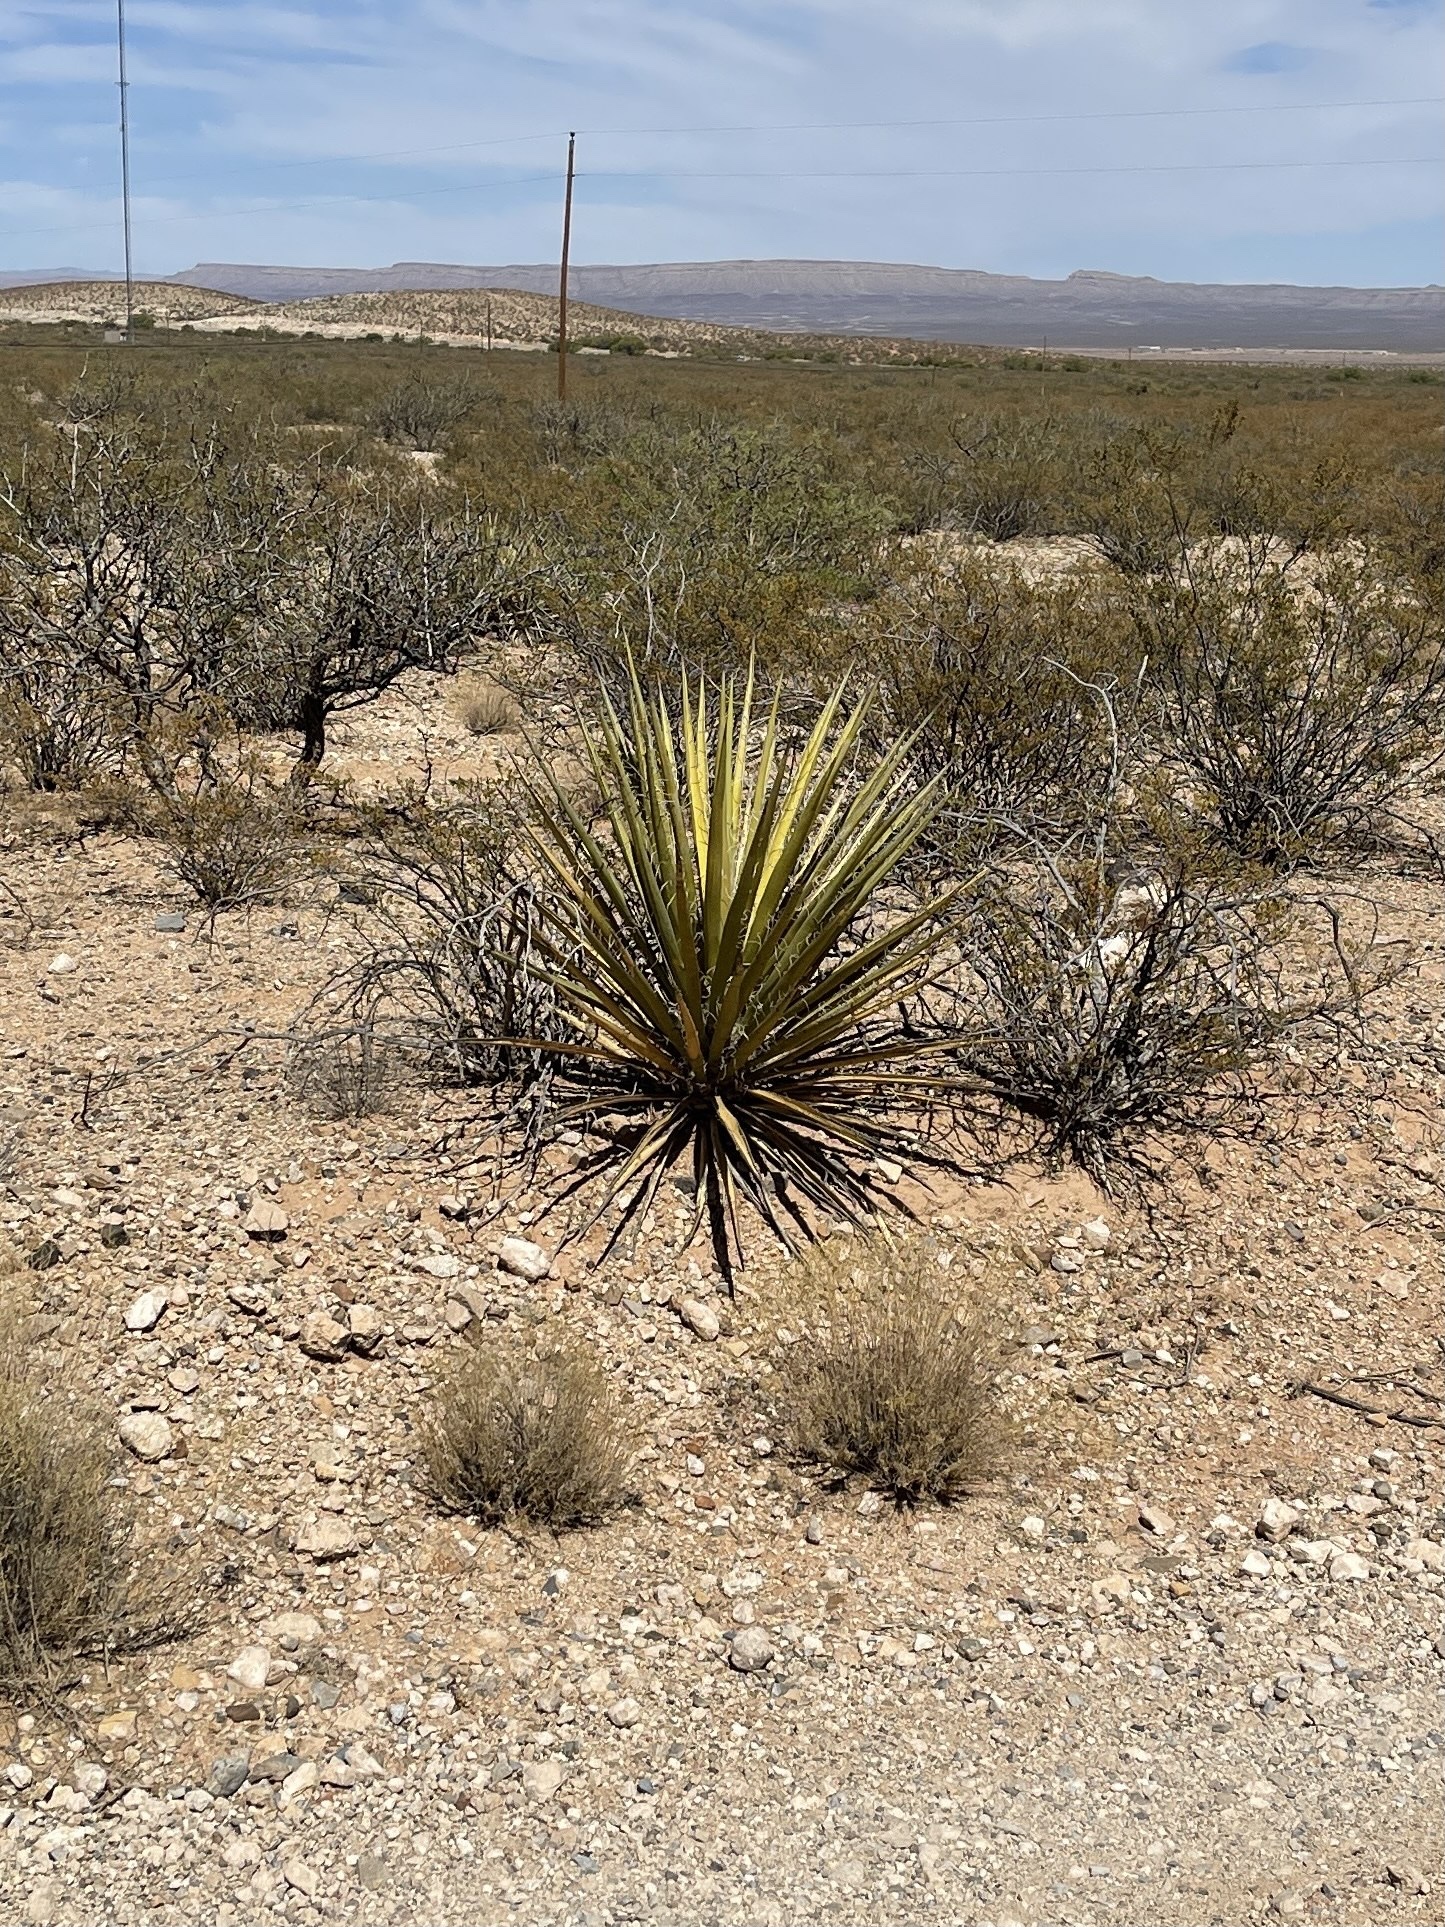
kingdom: Plantae
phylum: Tracheophyta
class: Liliopsida
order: Asparagales
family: Asparagaceae
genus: Yucca
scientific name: Yucca baccata
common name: Banana yucca
